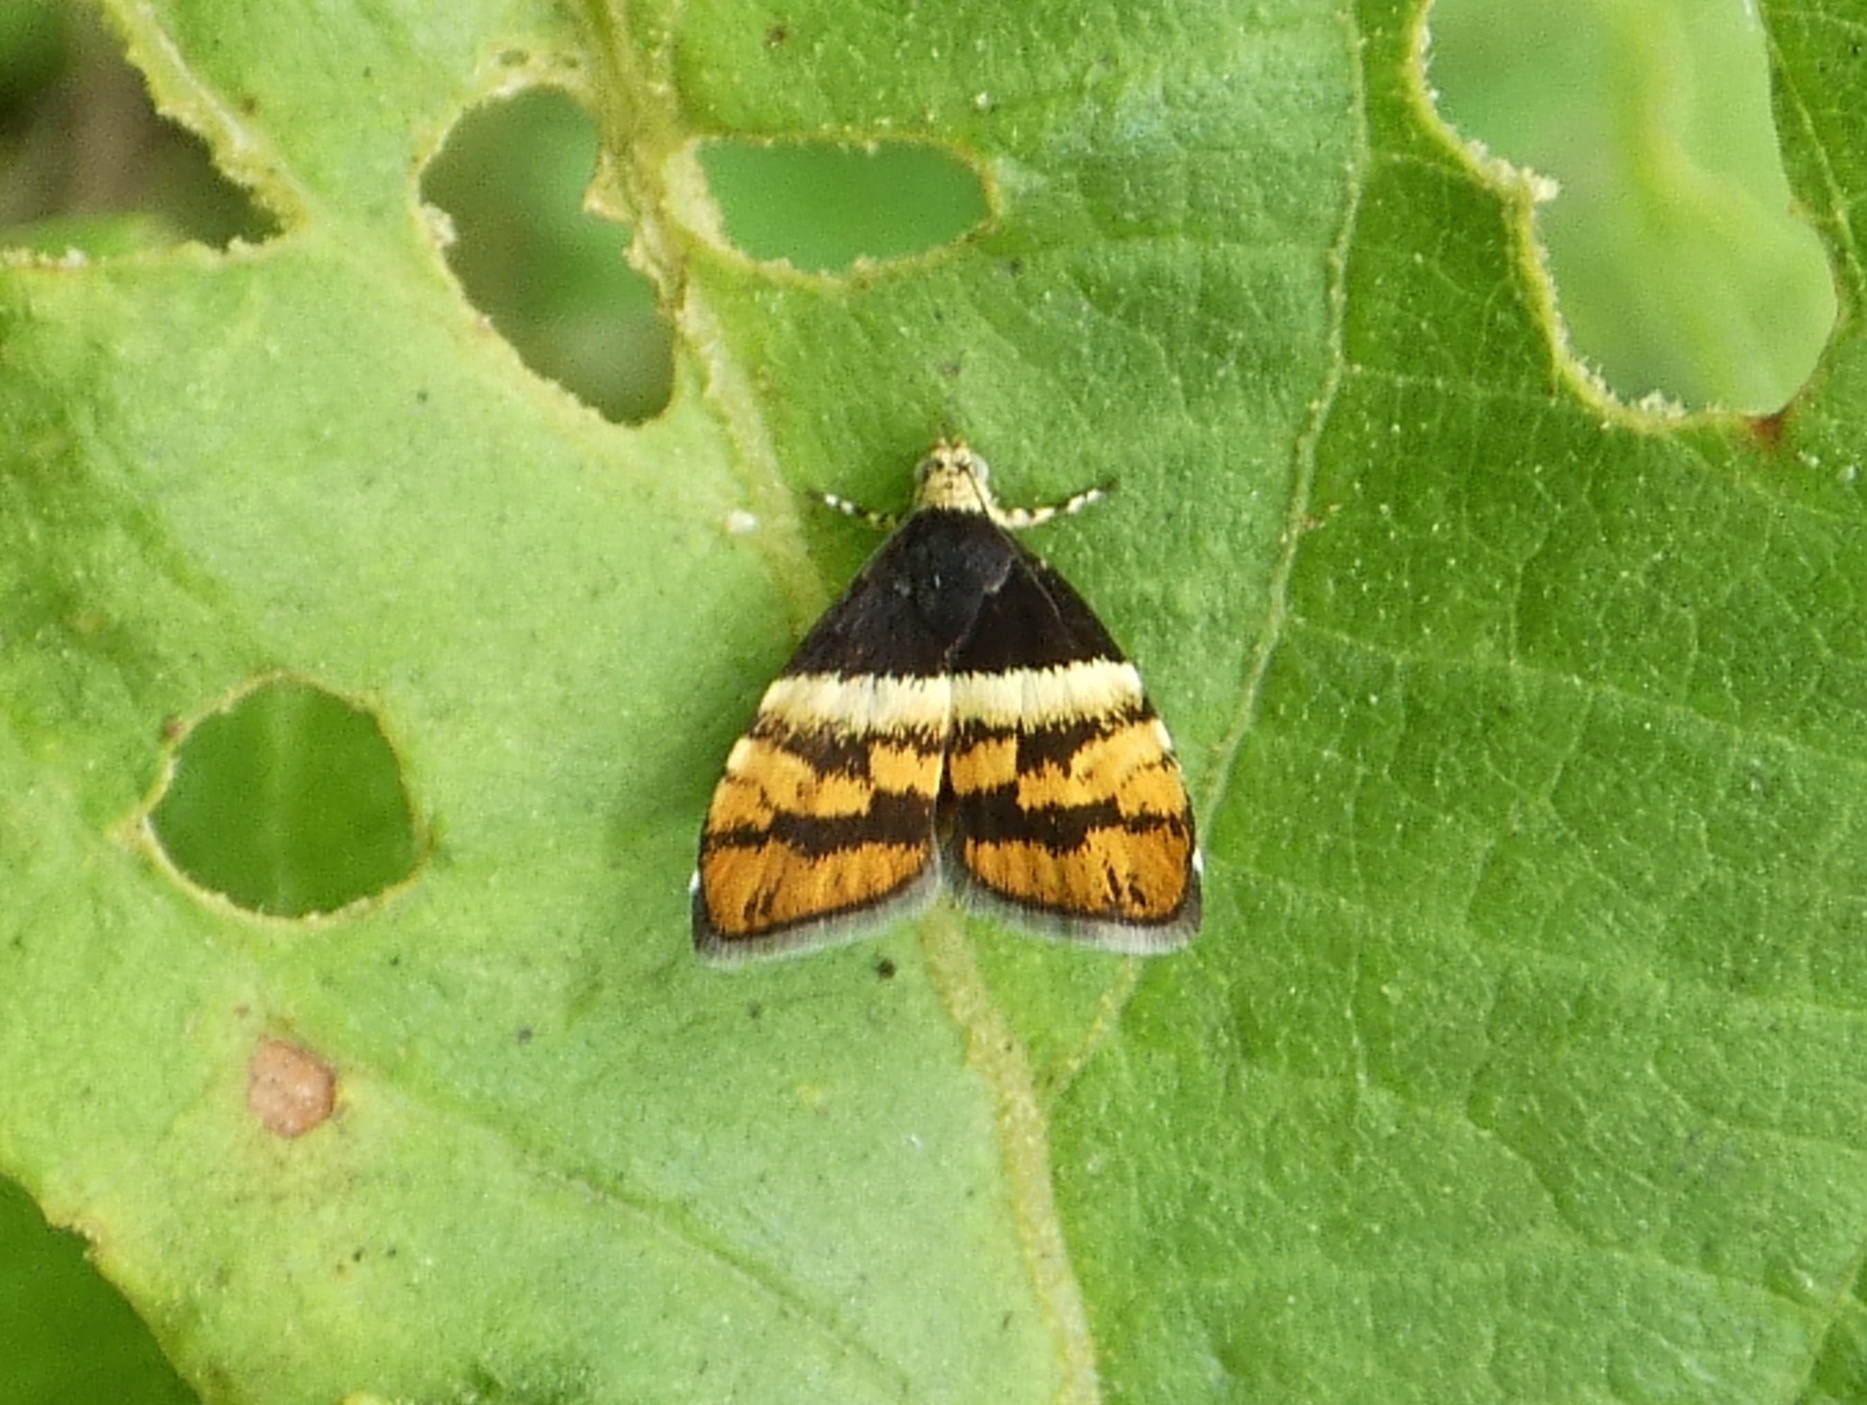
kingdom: Animalia
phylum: Arthropoda
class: Insecta
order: Lepidoptera
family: Choreutidae
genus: Anthophila
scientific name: Anthophila xanthogramma
